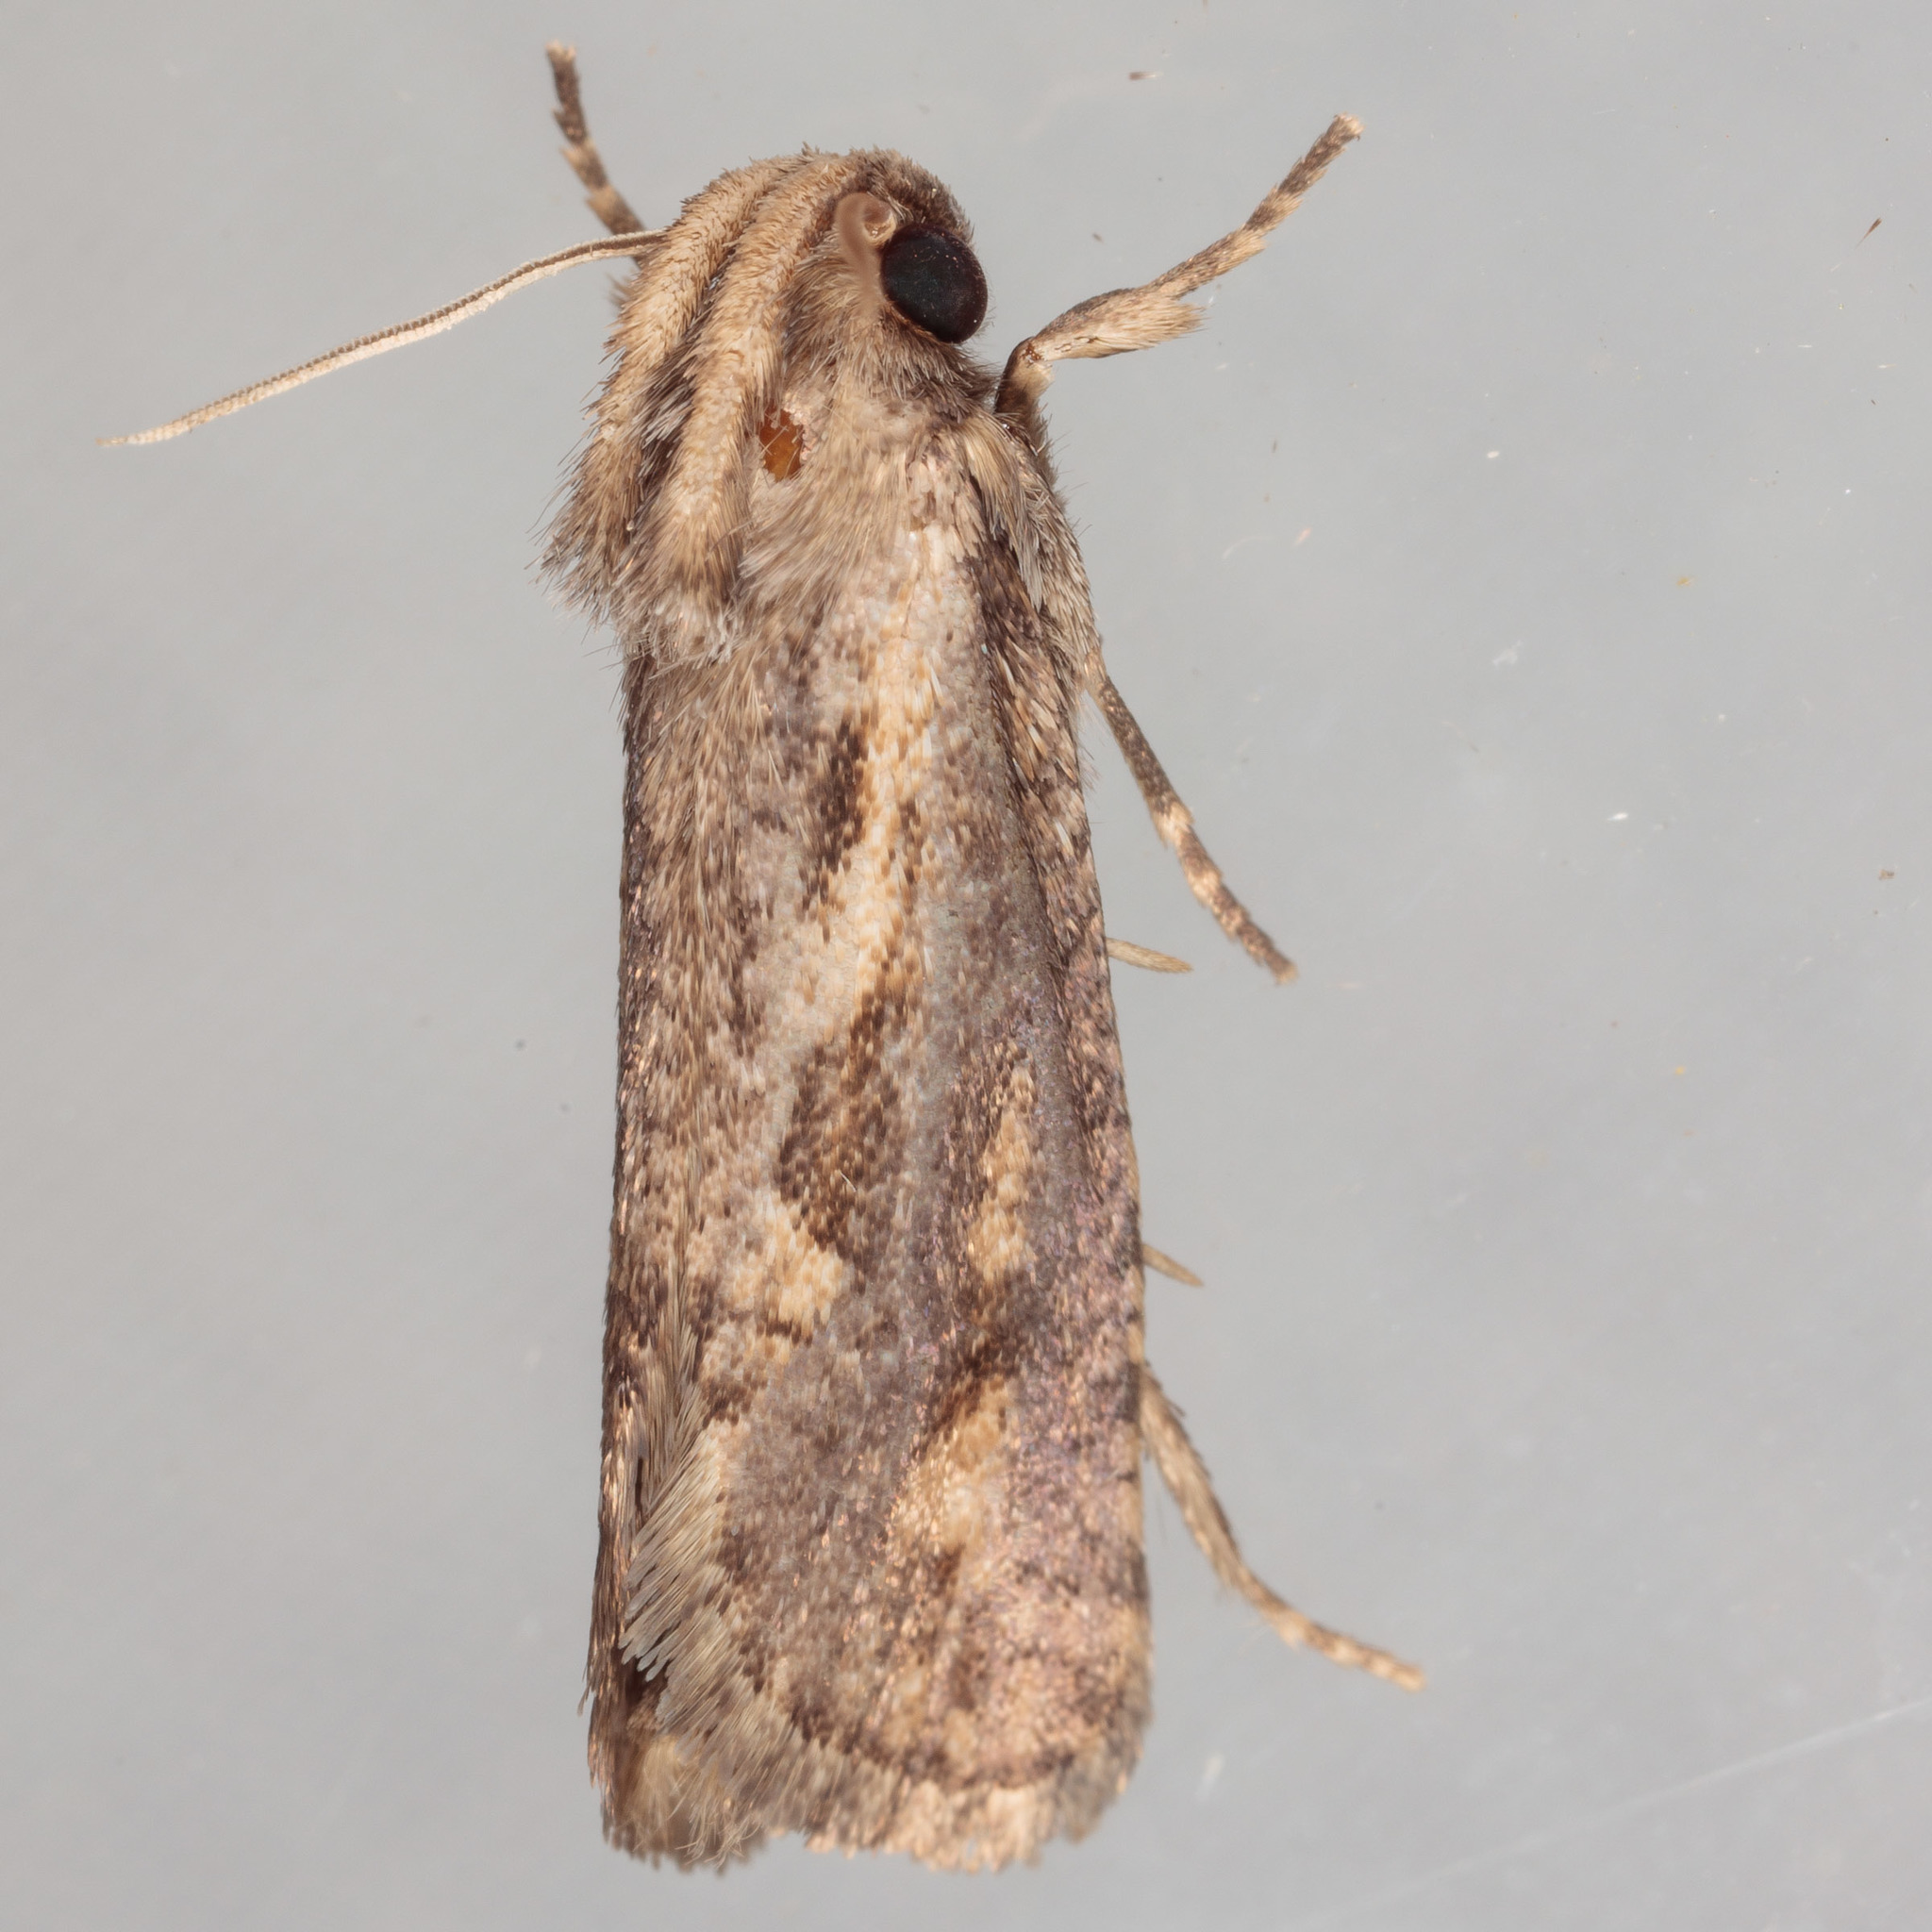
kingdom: Animalia
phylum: Arthropoda
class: Insecta
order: Lepidoptera
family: Tineidae
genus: Acrolophus
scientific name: Acrolophus popeanella
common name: Clemens' grass tubeworm moth
